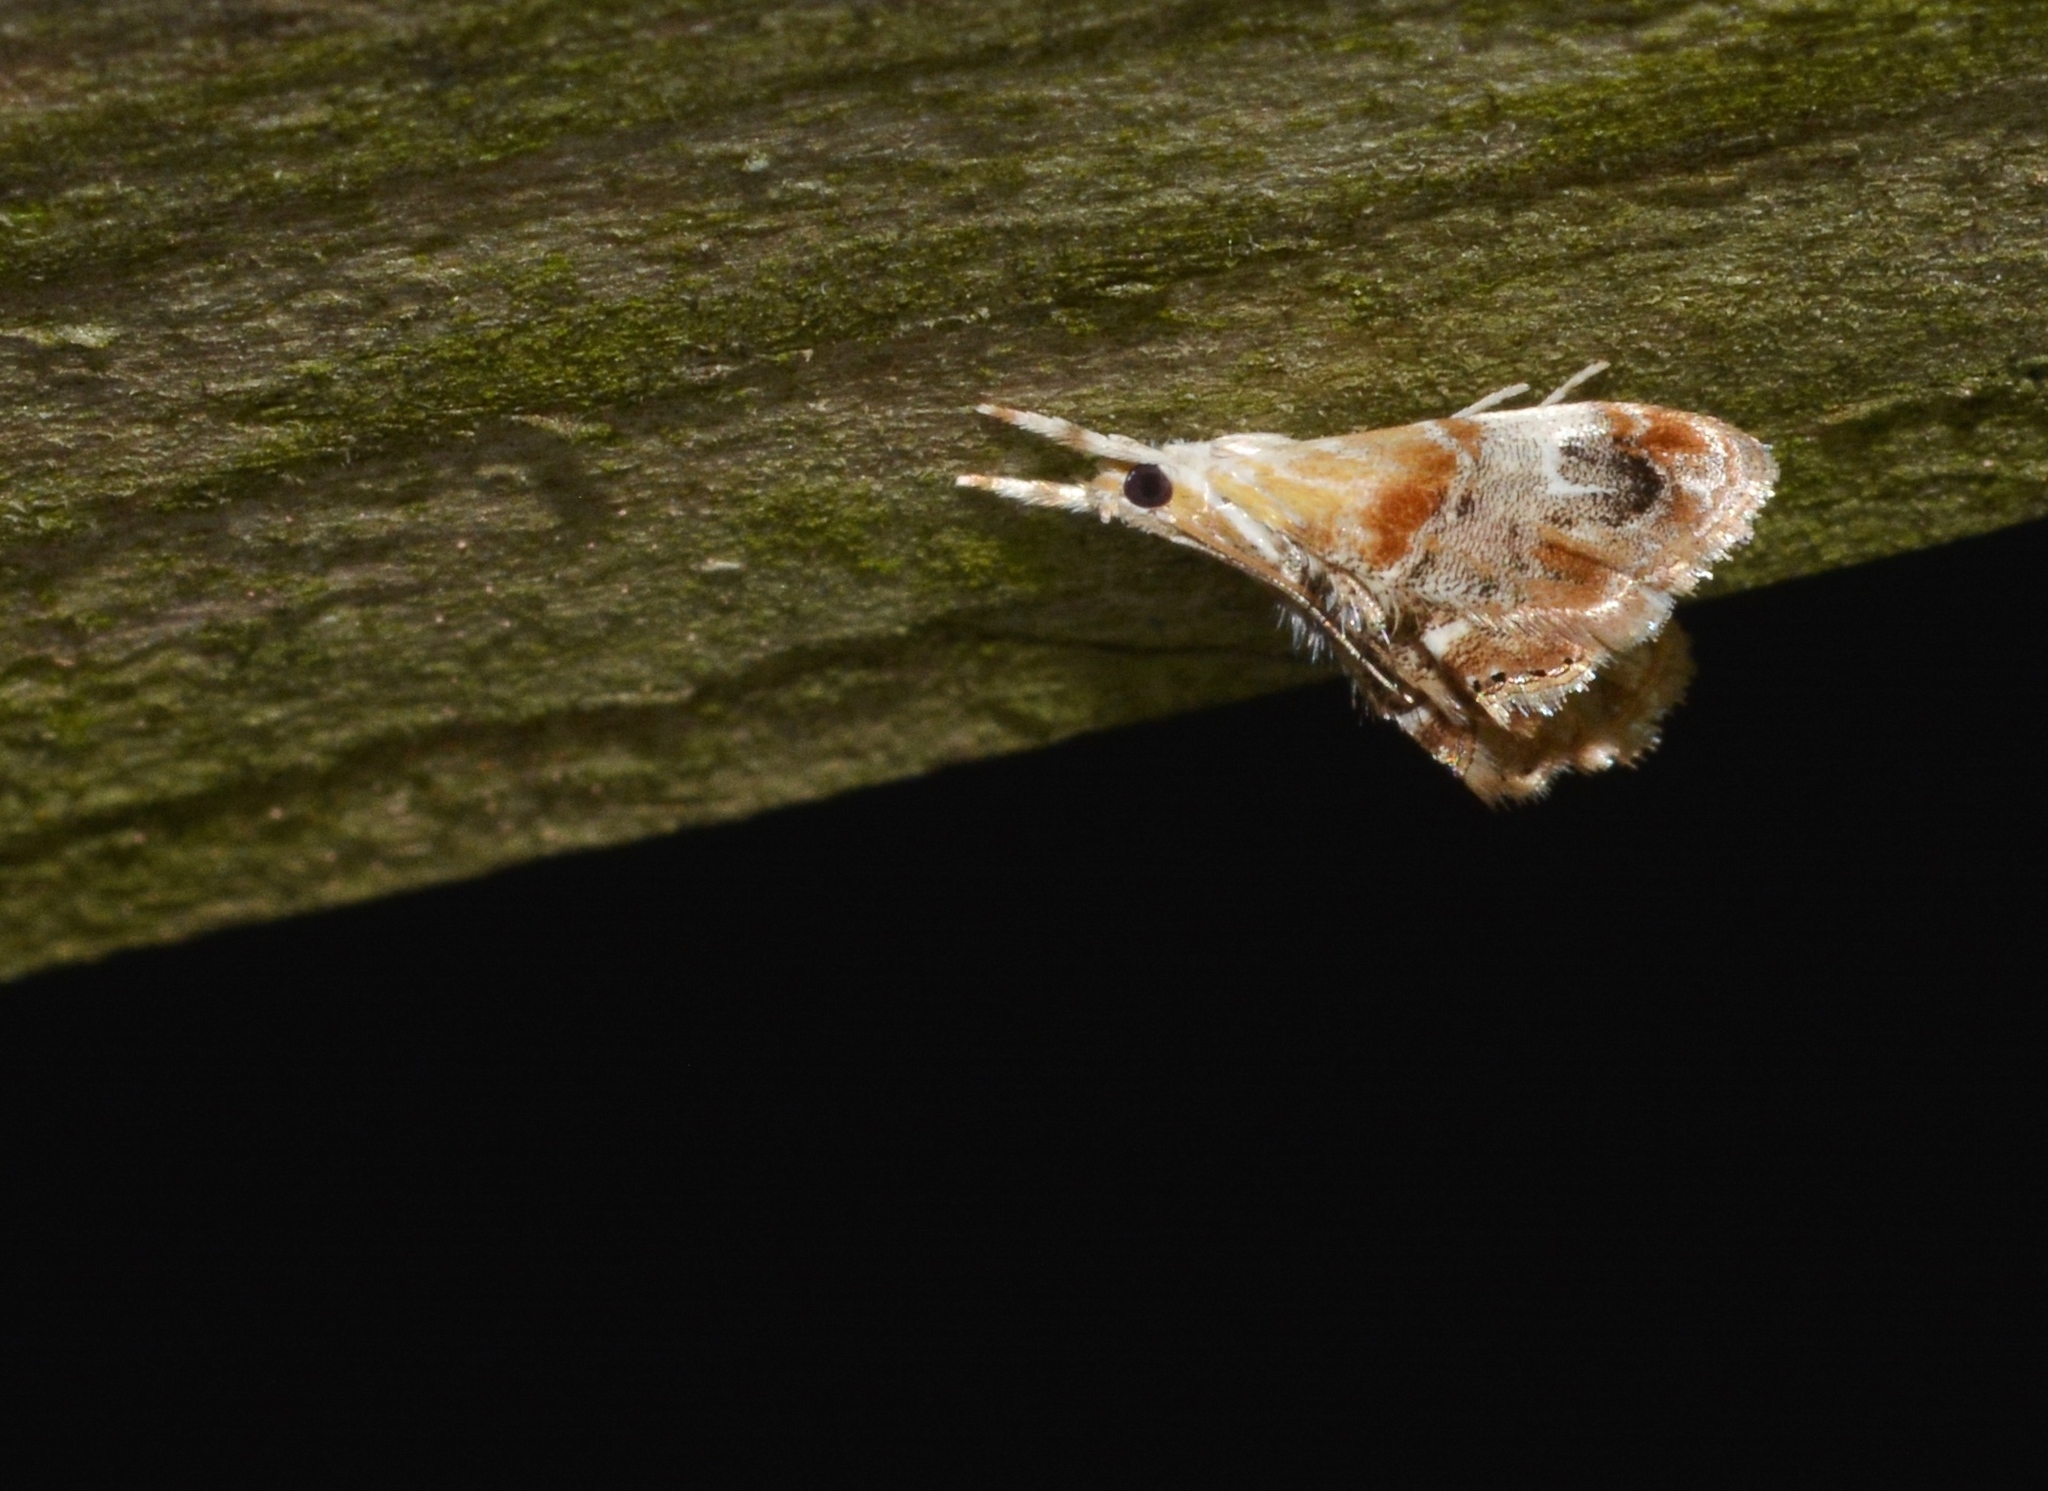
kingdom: Animalia
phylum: Arthropoda
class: Insecta
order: Lepidoptera
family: Crambidae
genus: Dicymolomia
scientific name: Dicymolomia julianalis
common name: Julia's dicymolomia moth
